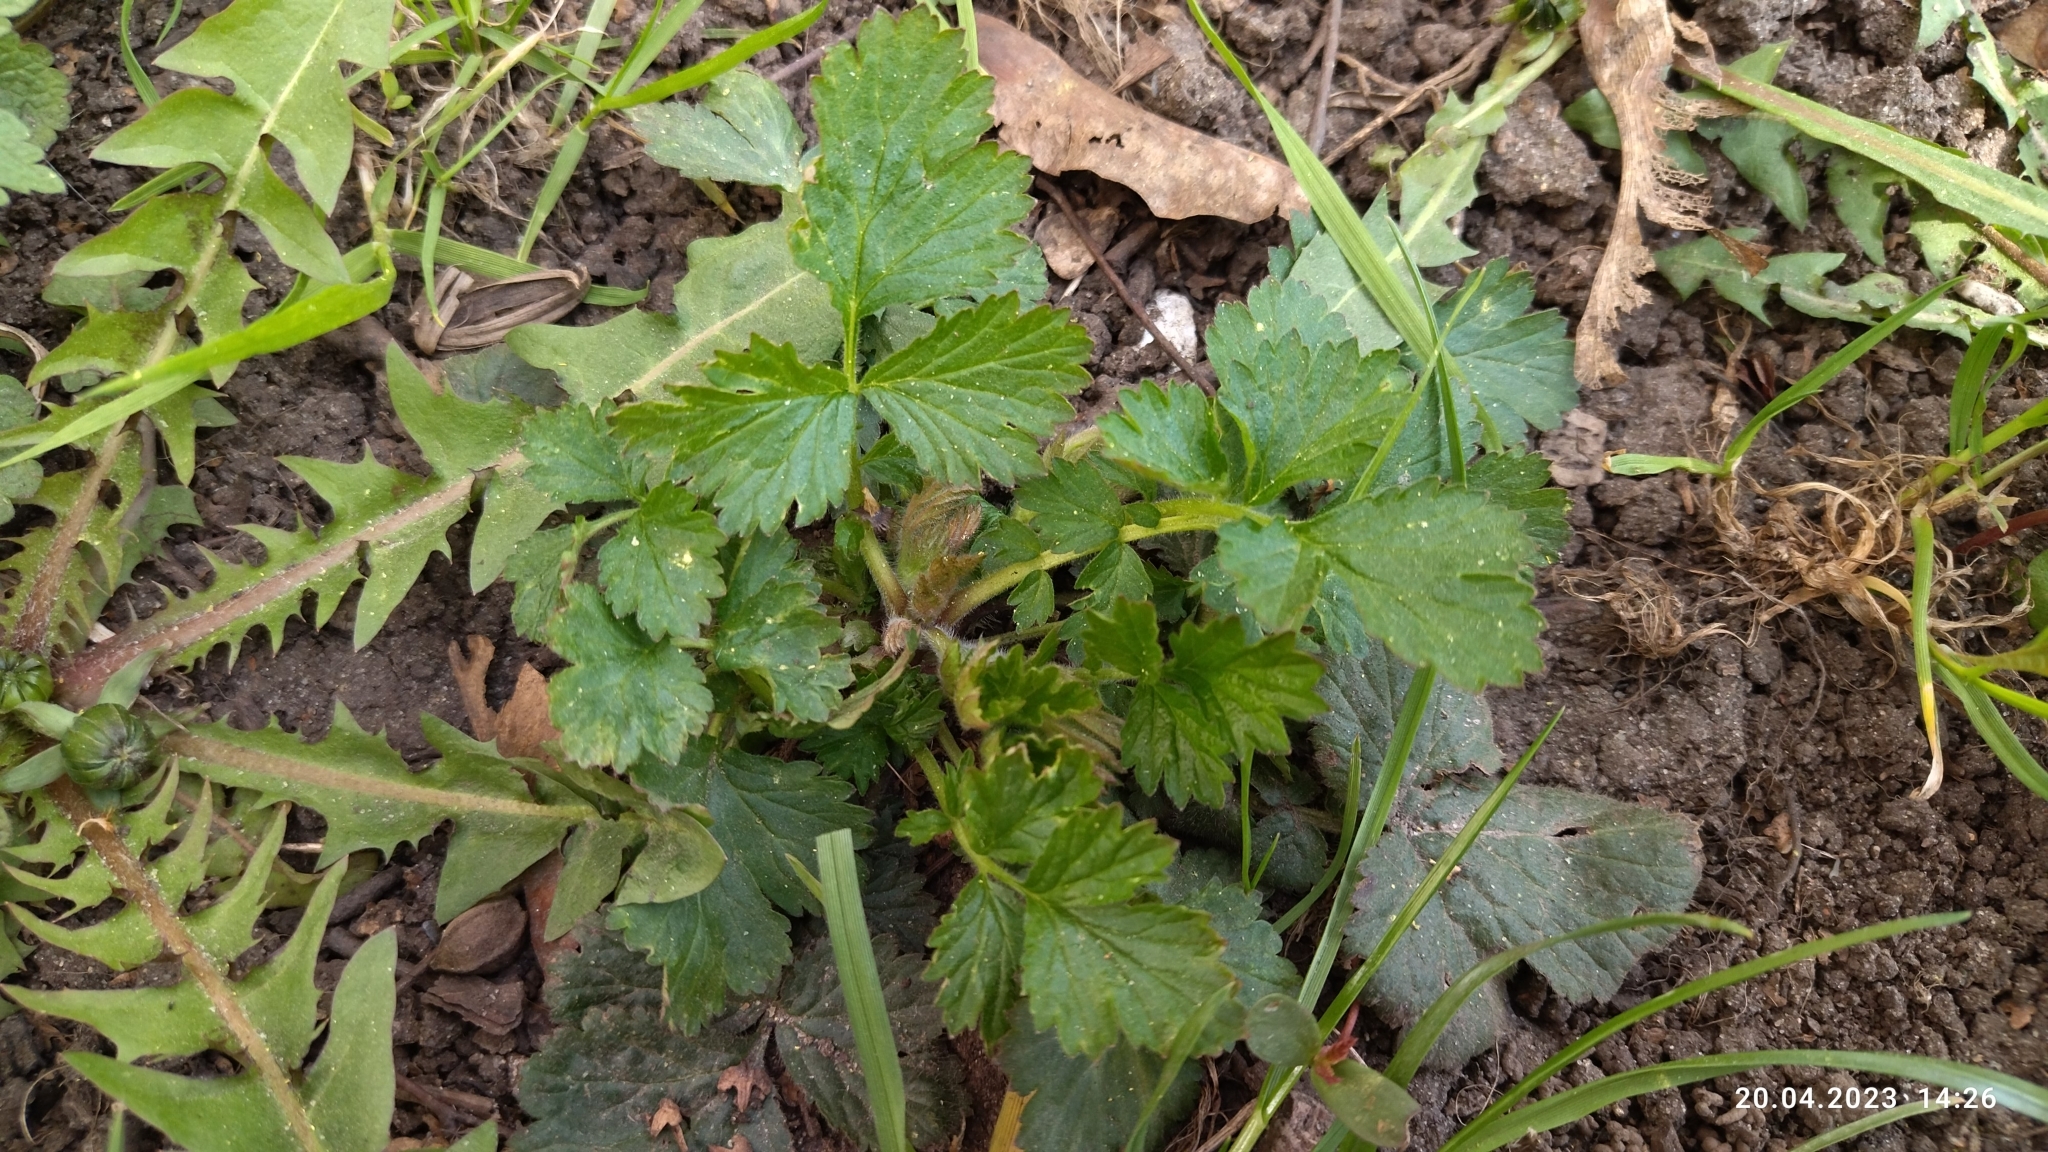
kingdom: Plantae
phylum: Tracheophyta
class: Magnoliopsida
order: Rosales
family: Rosaceae
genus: Geum
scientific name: Geum urbanum
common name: Wood avens
